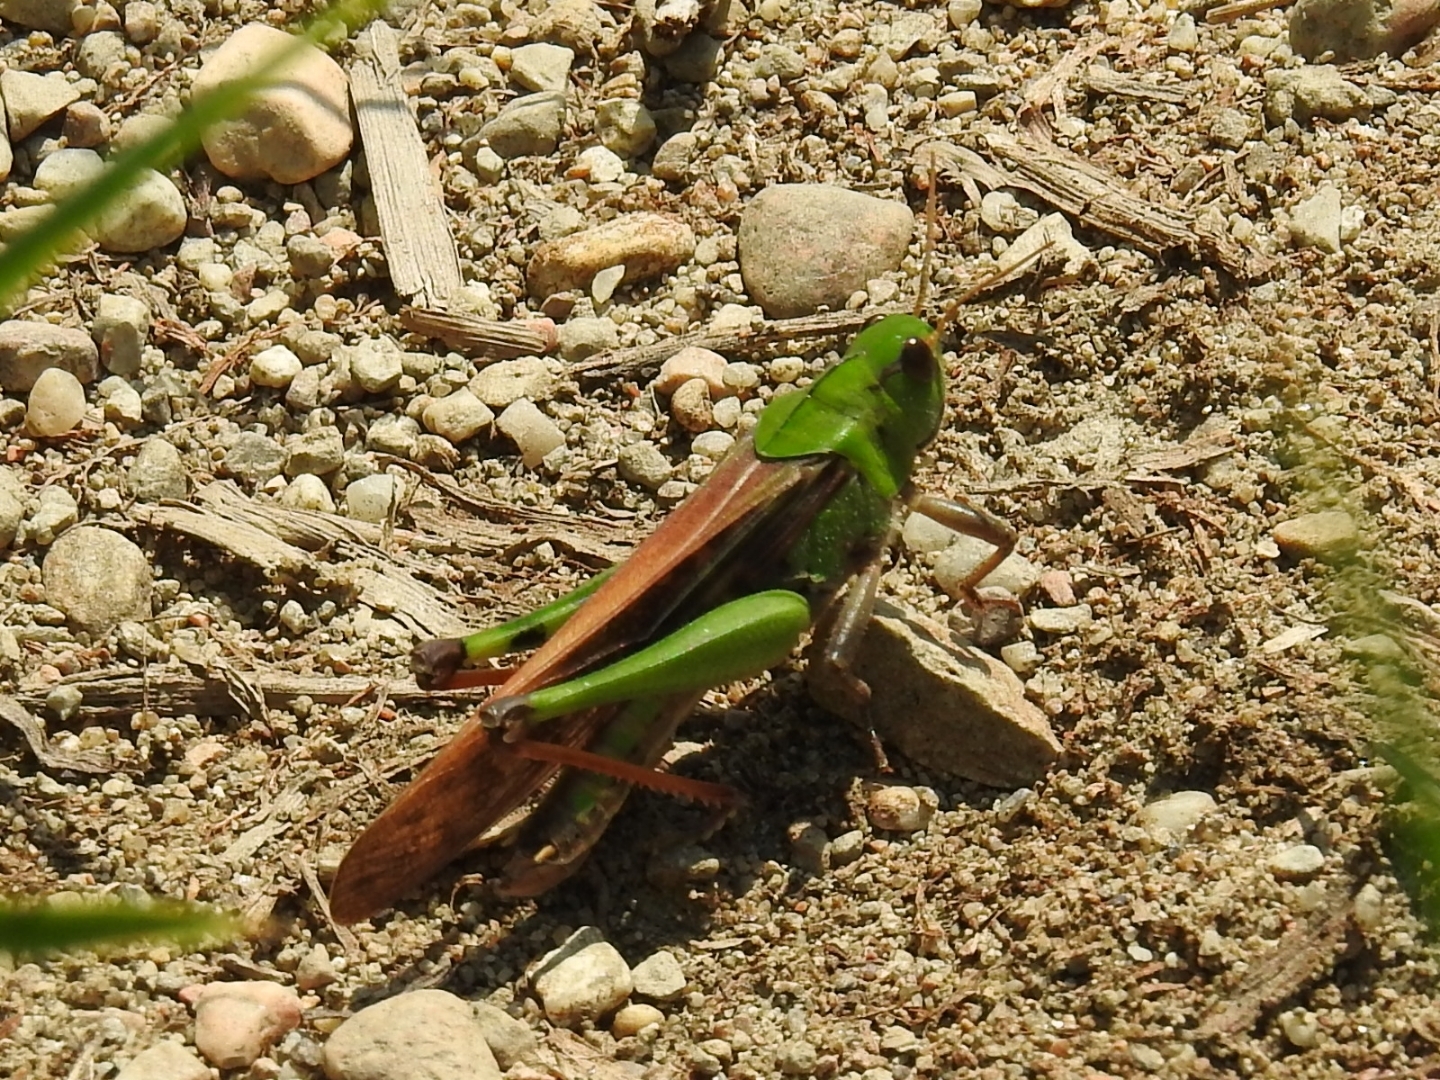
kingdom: Animalia
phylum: Arthropoda
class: Insecta
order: Orthoptera
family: Acrididae
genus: Locusta
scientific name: Locusta migratoria
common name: Migratory locust
